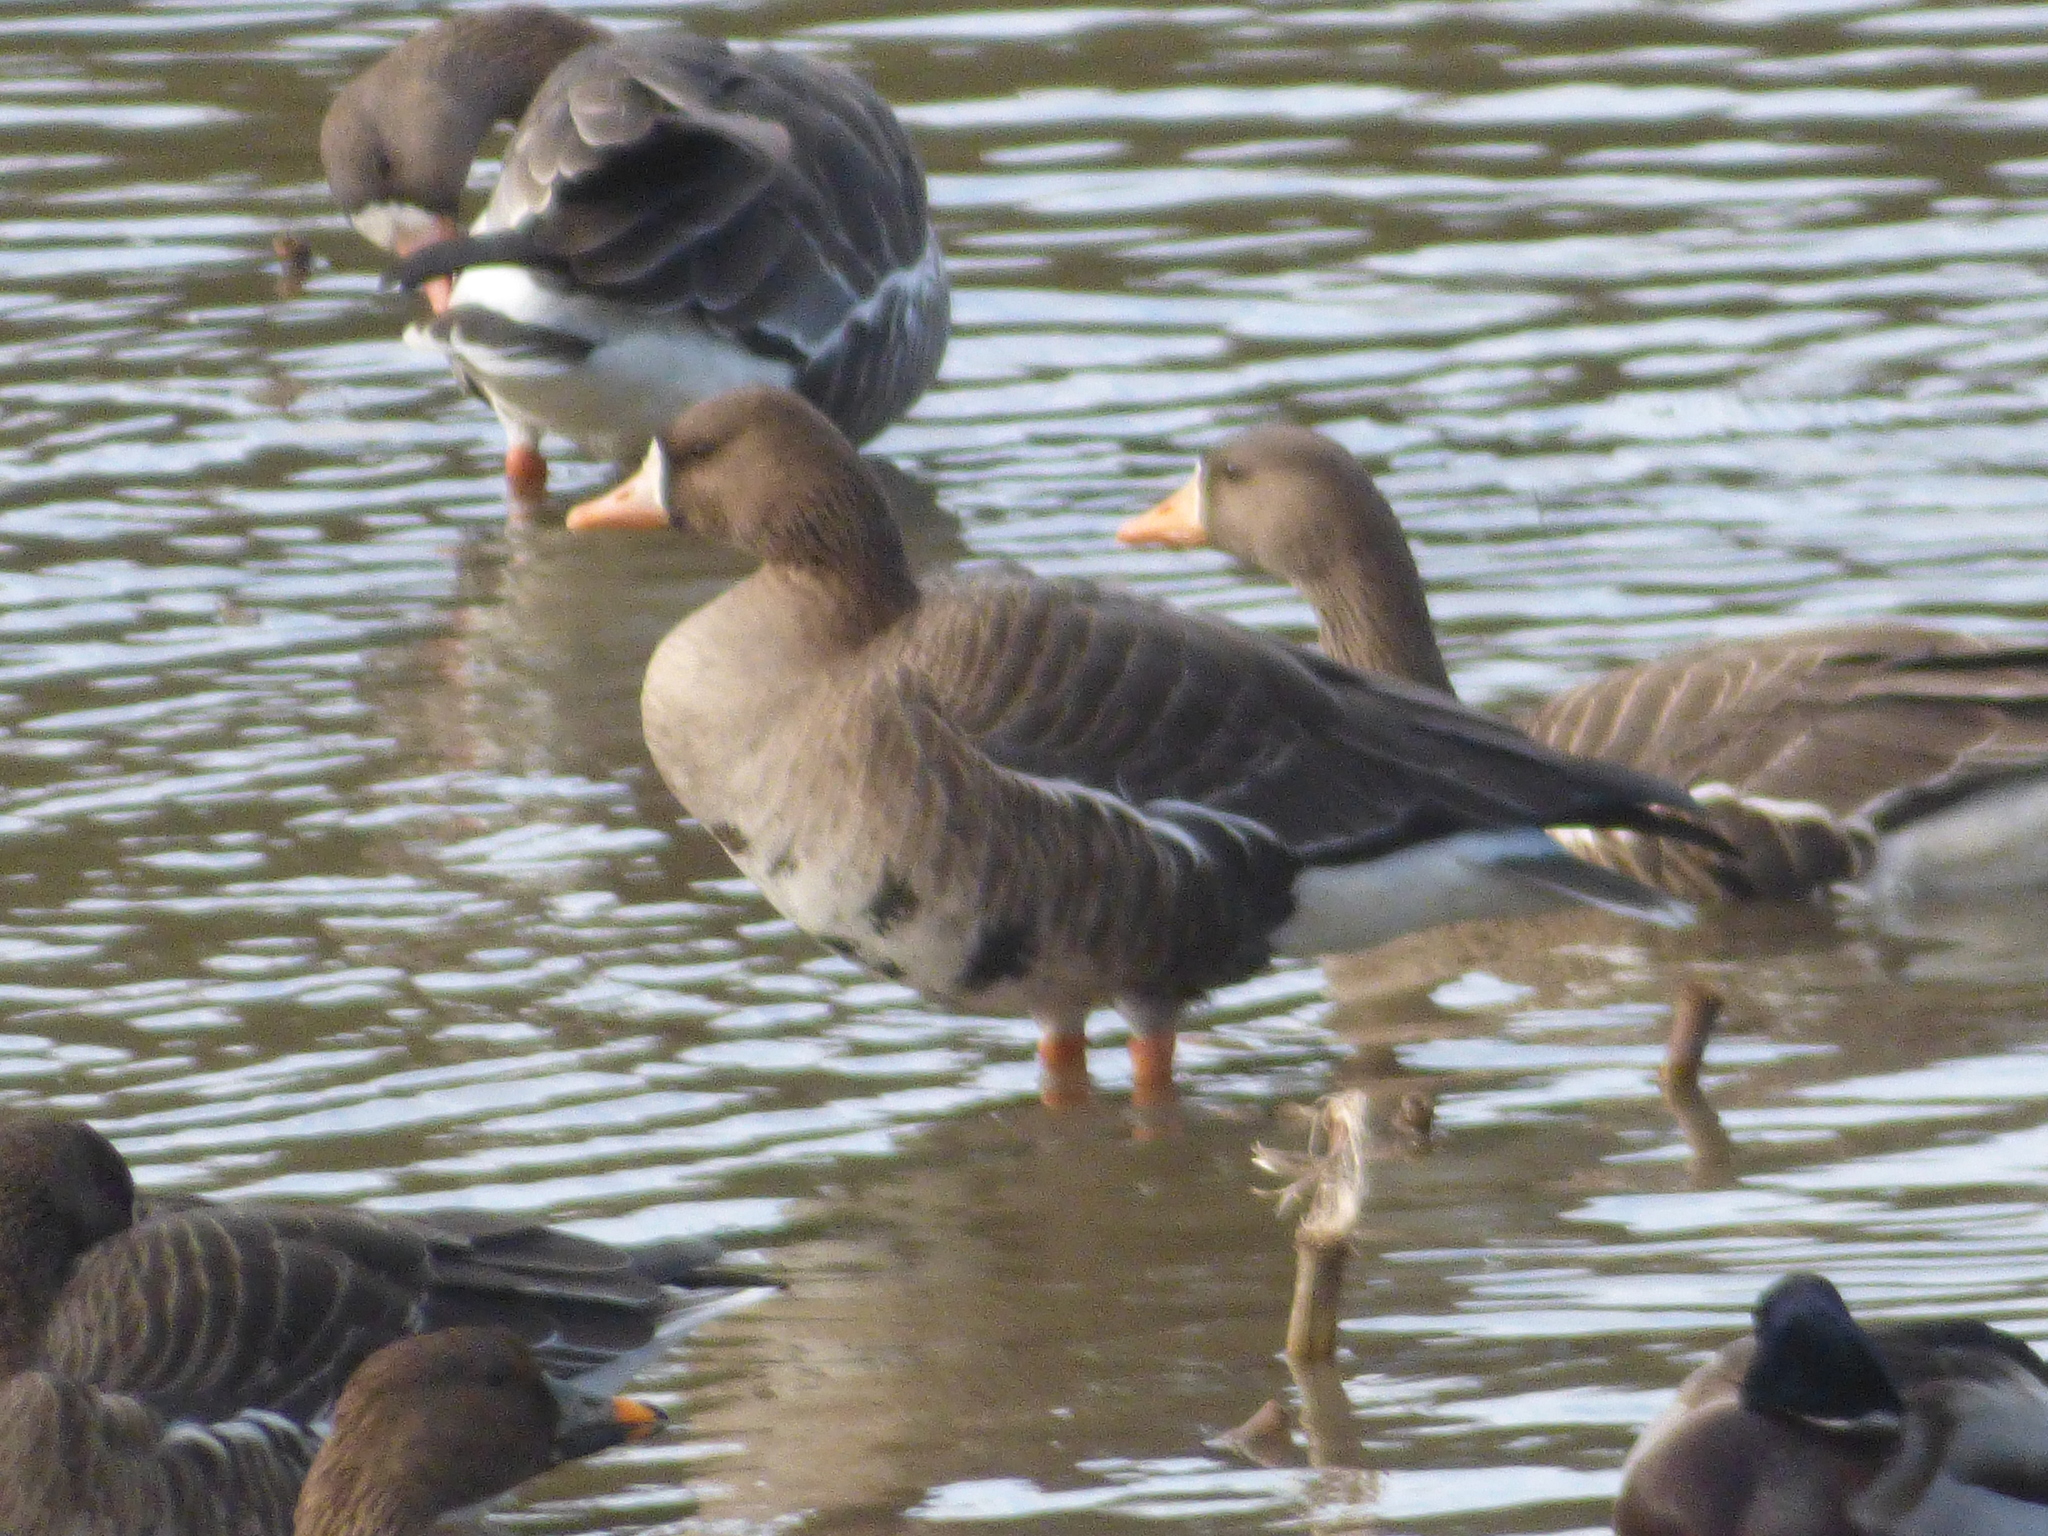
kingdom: Animalia
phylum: Chordata
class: Aves
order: Anseriformes
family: Anatidae
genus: Anser
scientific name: Anser albifrons
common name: Greater white-fronted goose
